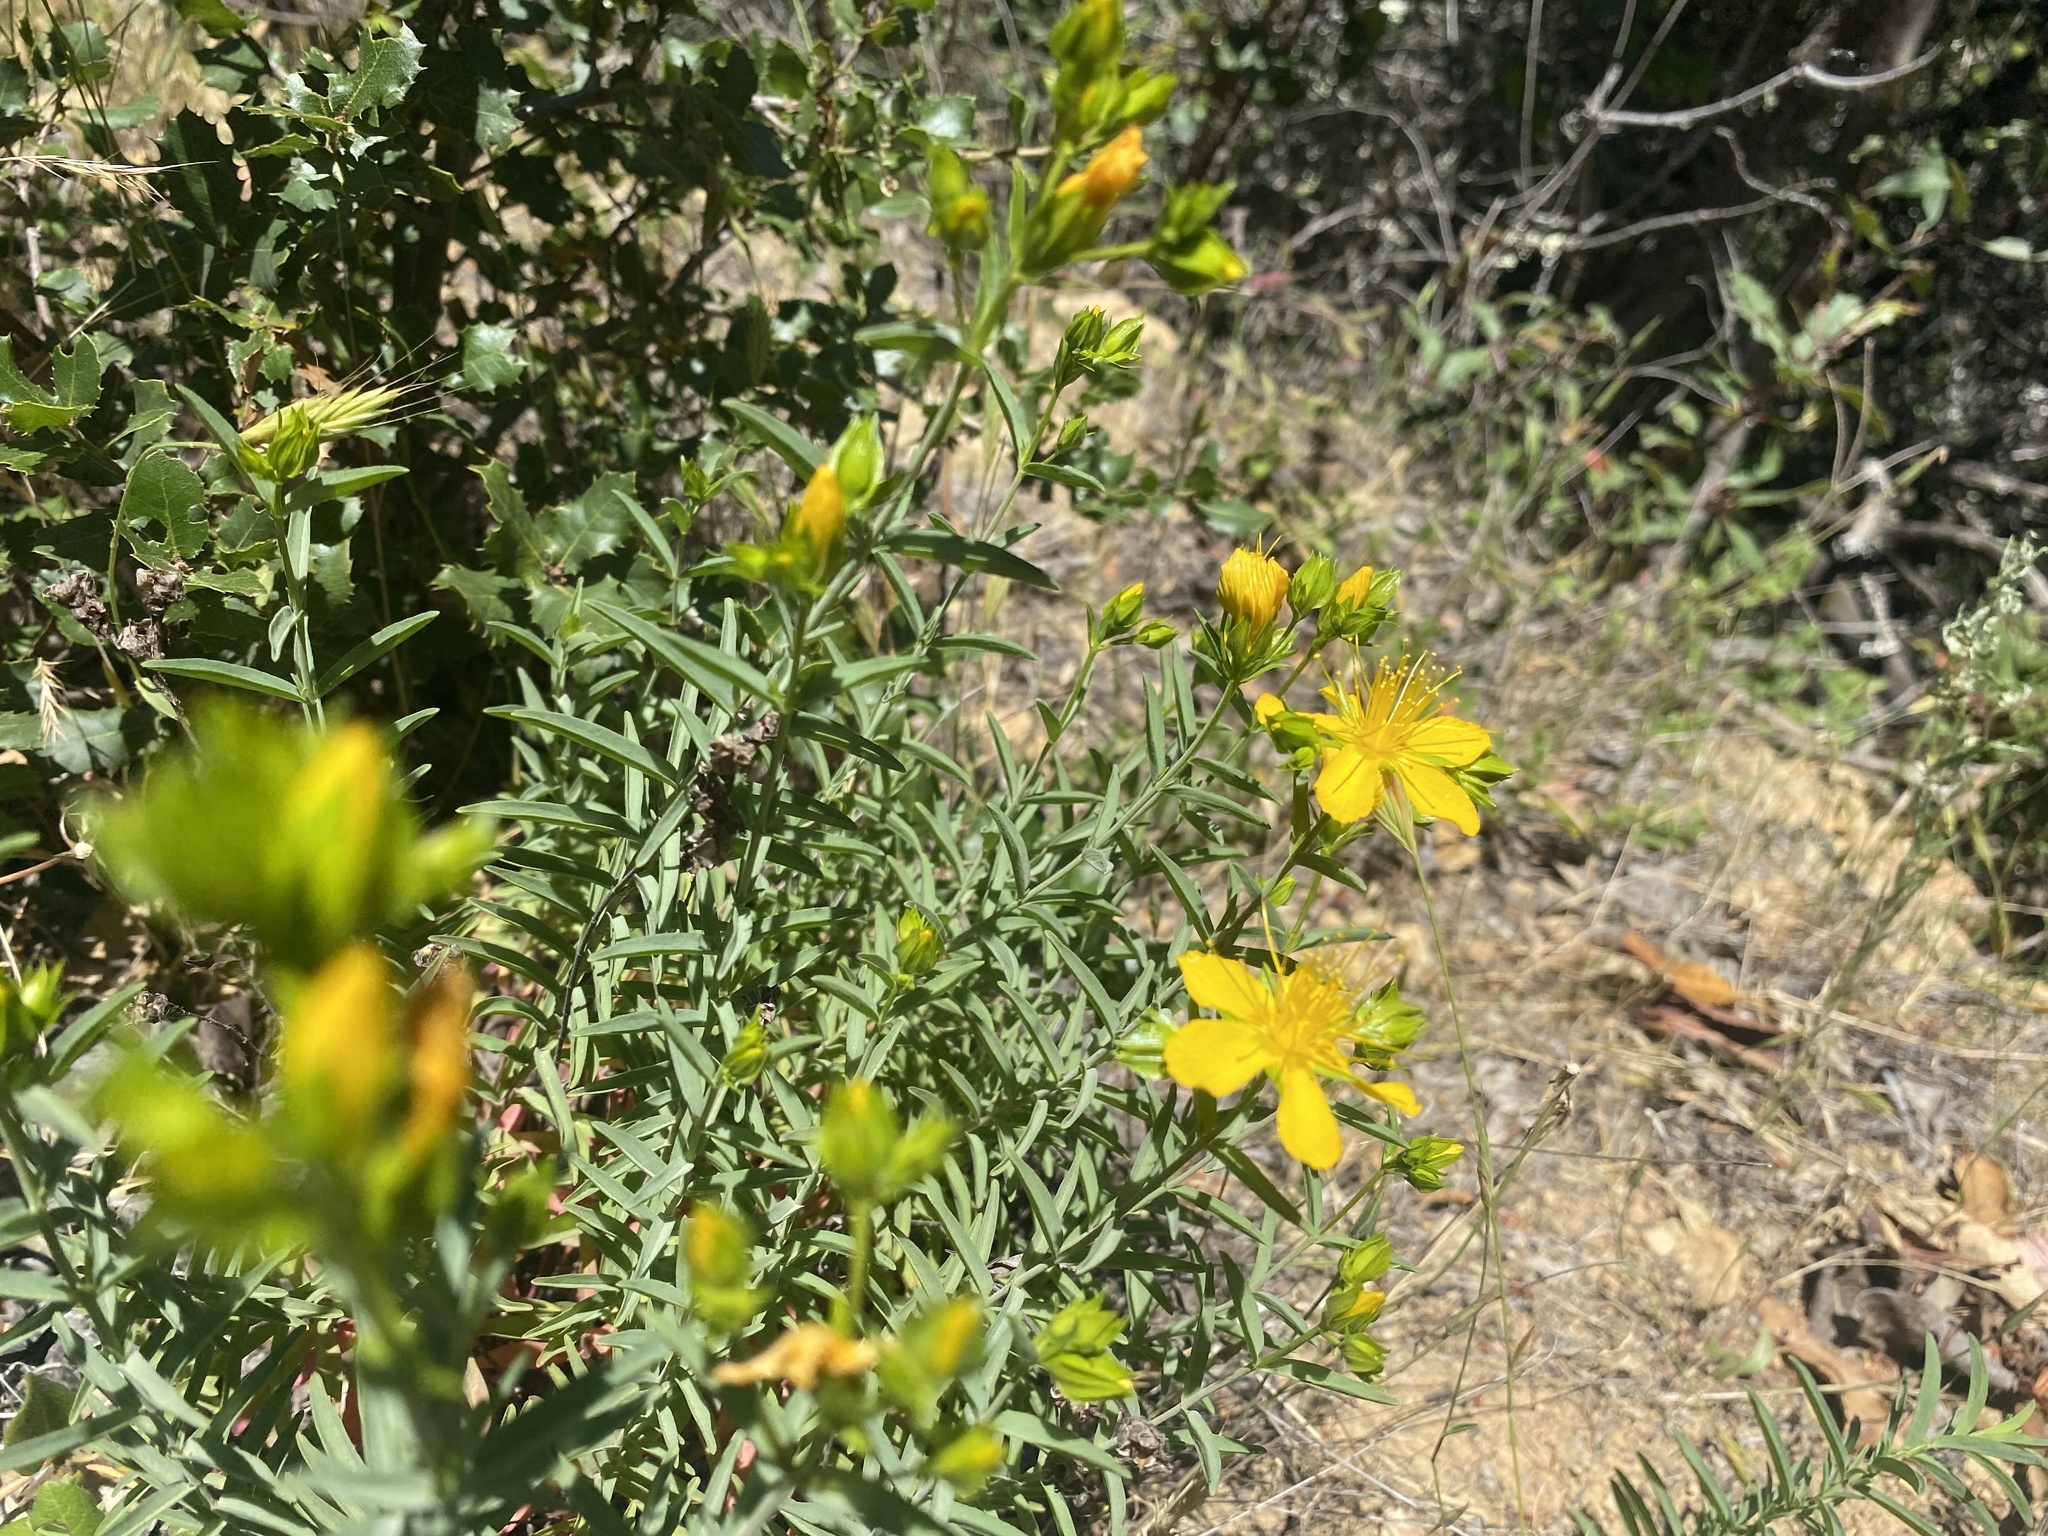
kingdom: Plantae
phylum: Tracheophyta
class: Magnoliopsida
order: Malpighiales
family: Hypericaceae
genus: Hypericum
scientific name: Hypericum concinnum
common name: Gold-wire
